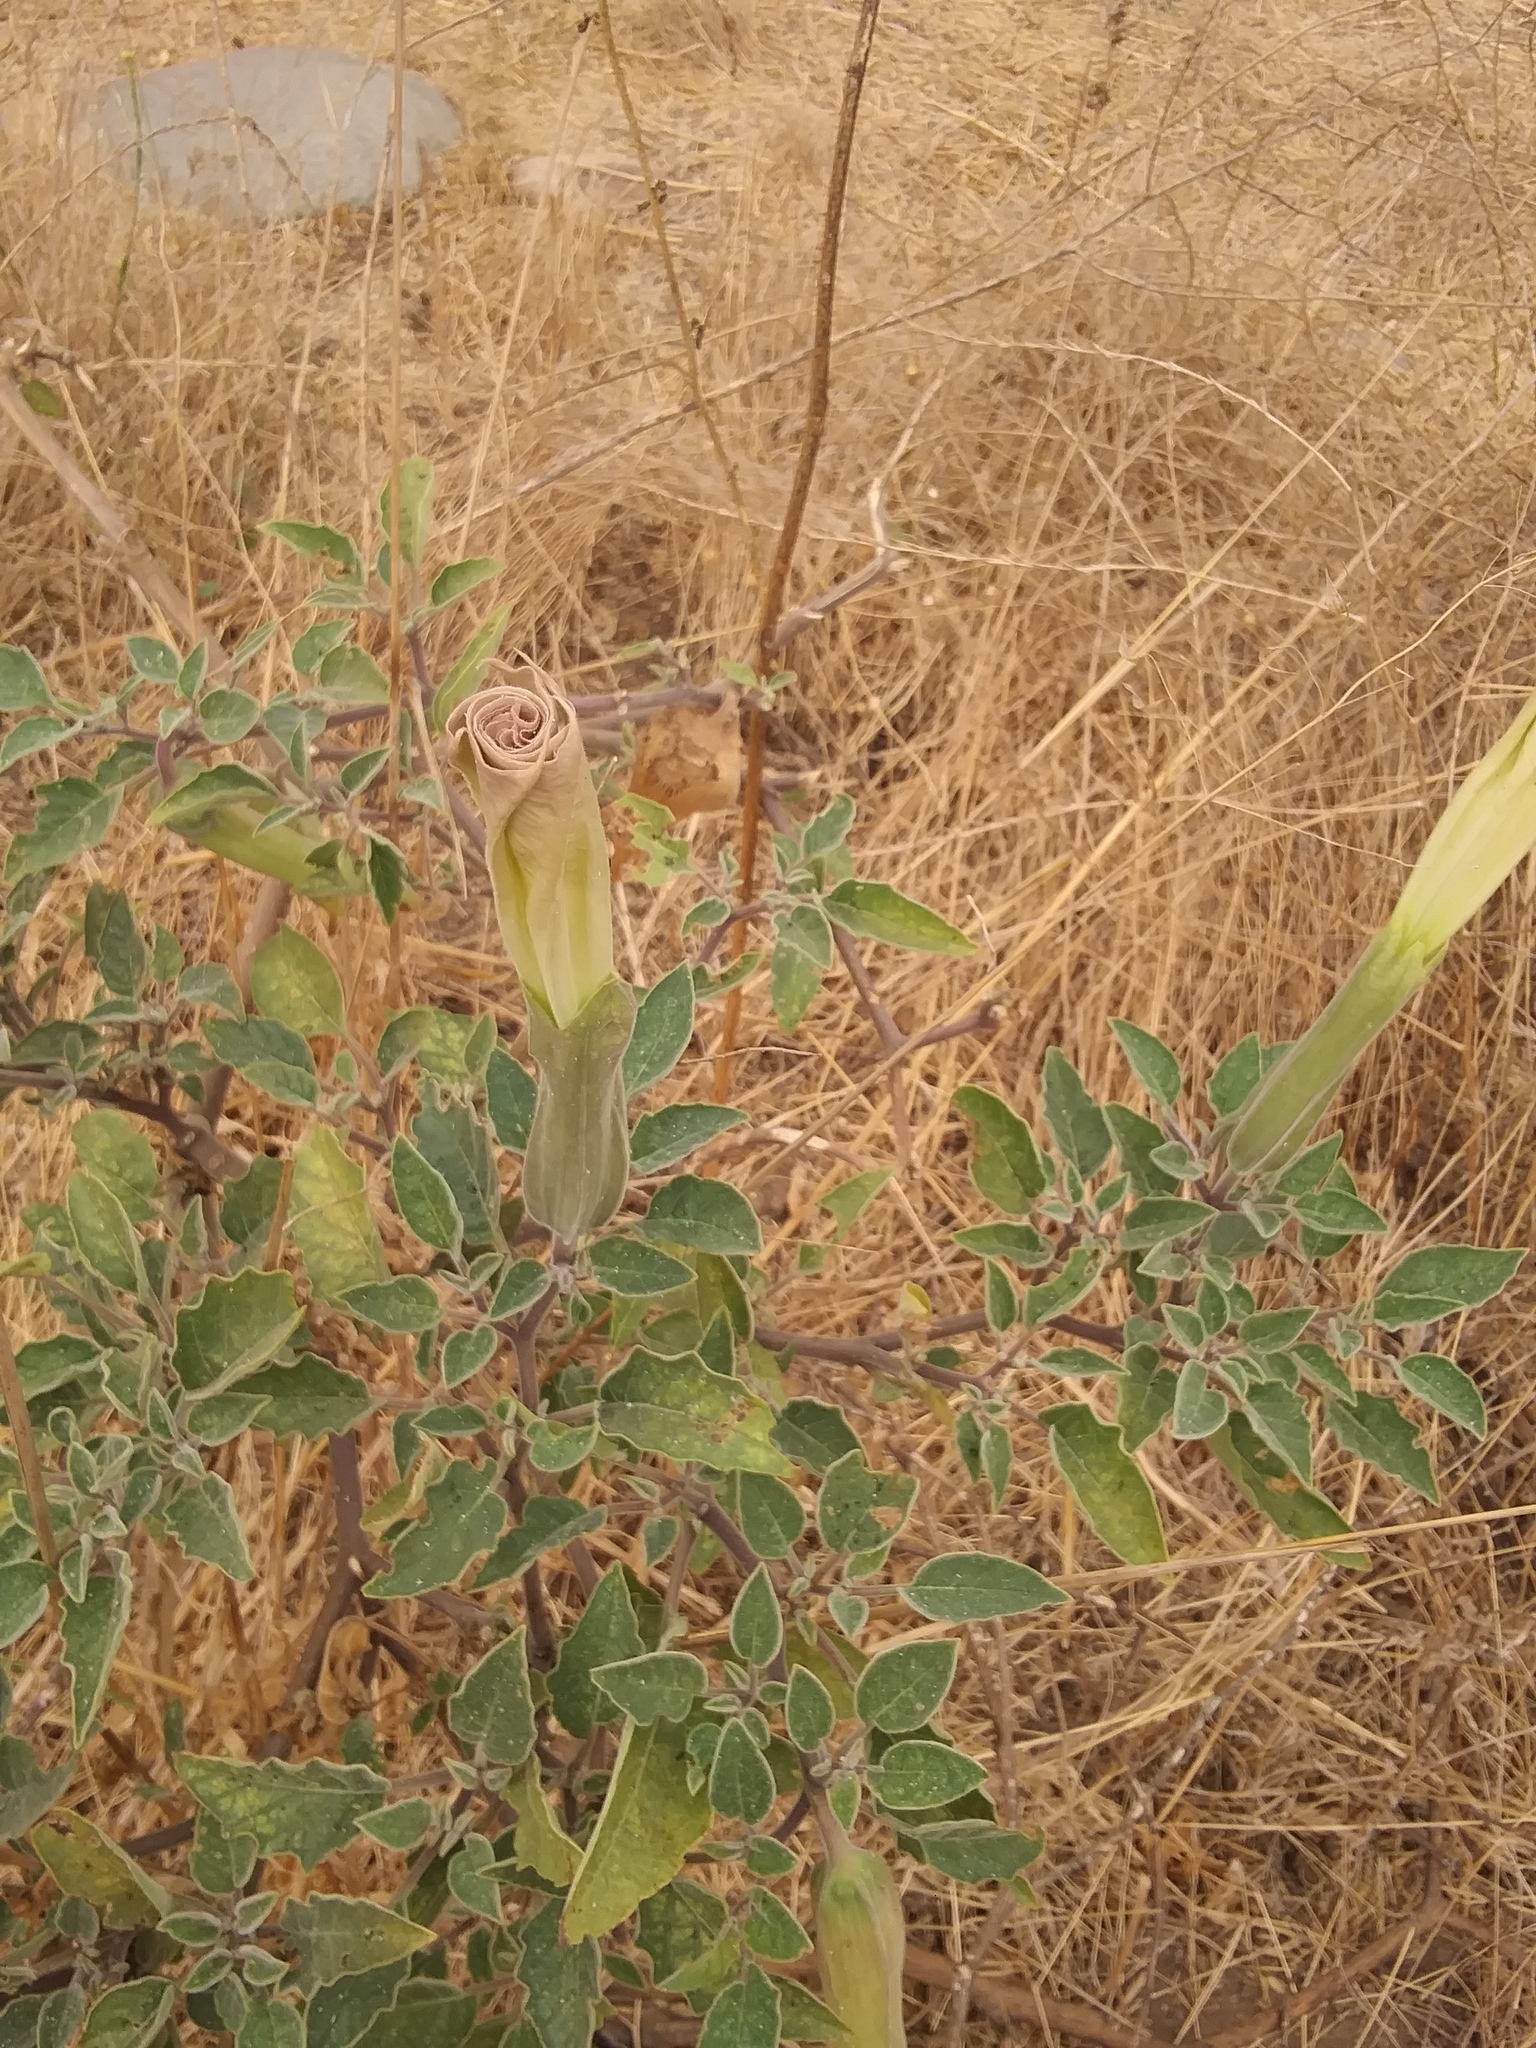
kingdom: Plantae
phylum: Tracheophyta
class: Magnoliopsida
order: Solanales
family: Solanaceae
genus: Datura
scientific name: Datura wrightii
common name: Sacred thorn-apple
